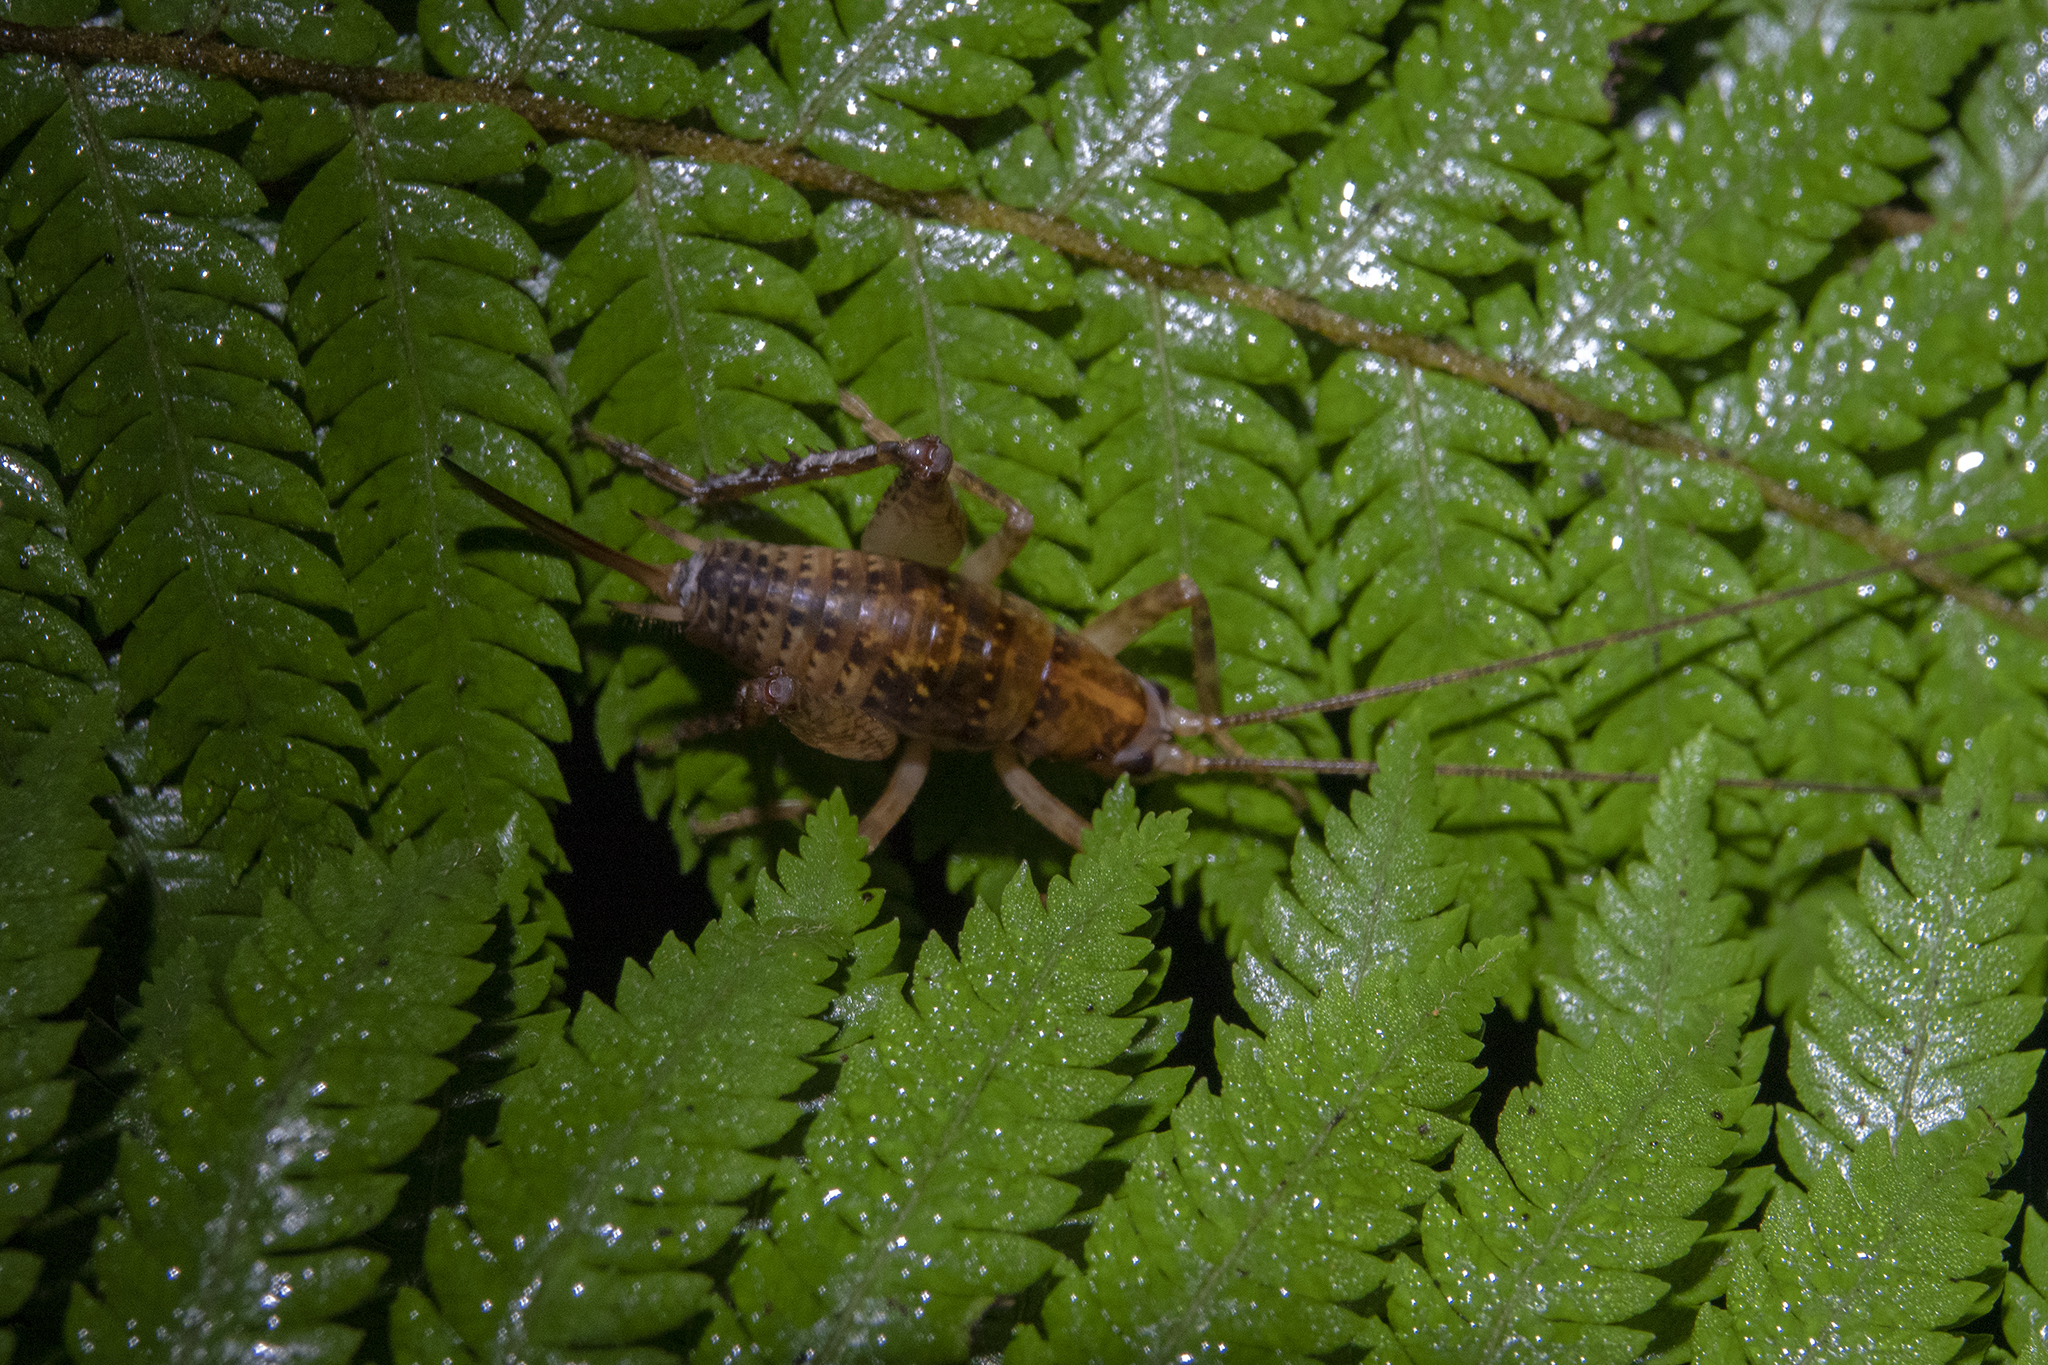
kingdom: Animalia
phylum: Arthropoda
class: Insecta
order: Orthoptera
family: Rhaphidophoridae
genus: Talitropsis
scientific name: Talitropsis sedilloti
